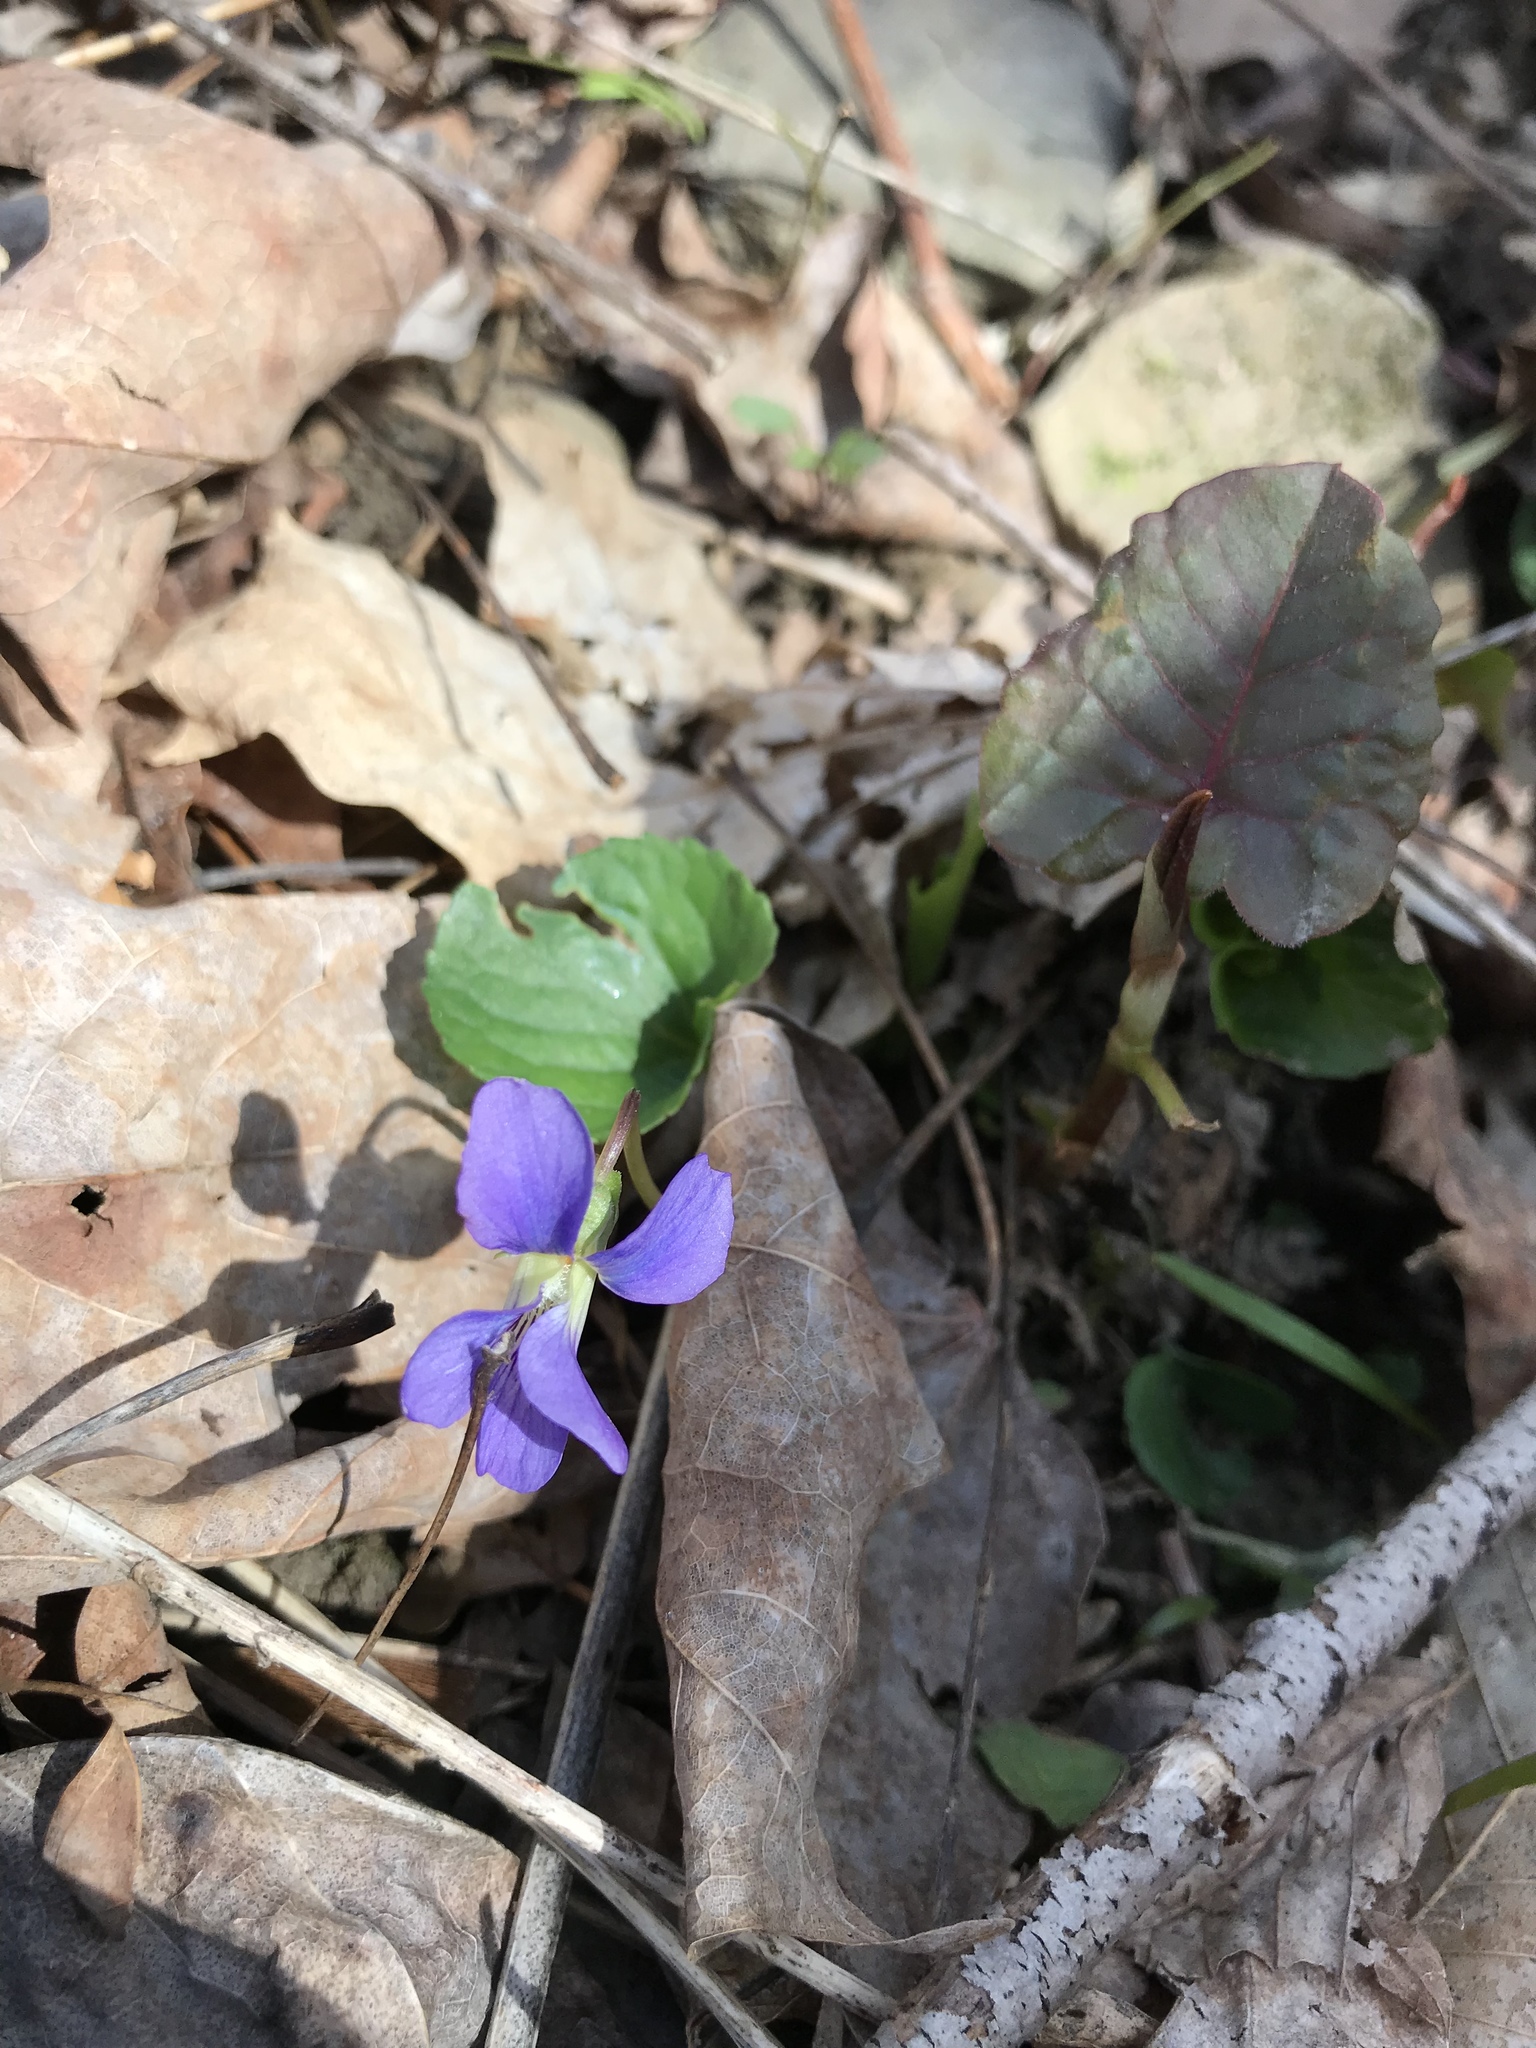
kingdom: Plantae
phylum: Tracheophyta
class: Magnoliopsida
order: Malpighiales
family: Violaceae
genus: Viola
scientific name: Viola sororia
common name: Dooryard violet
